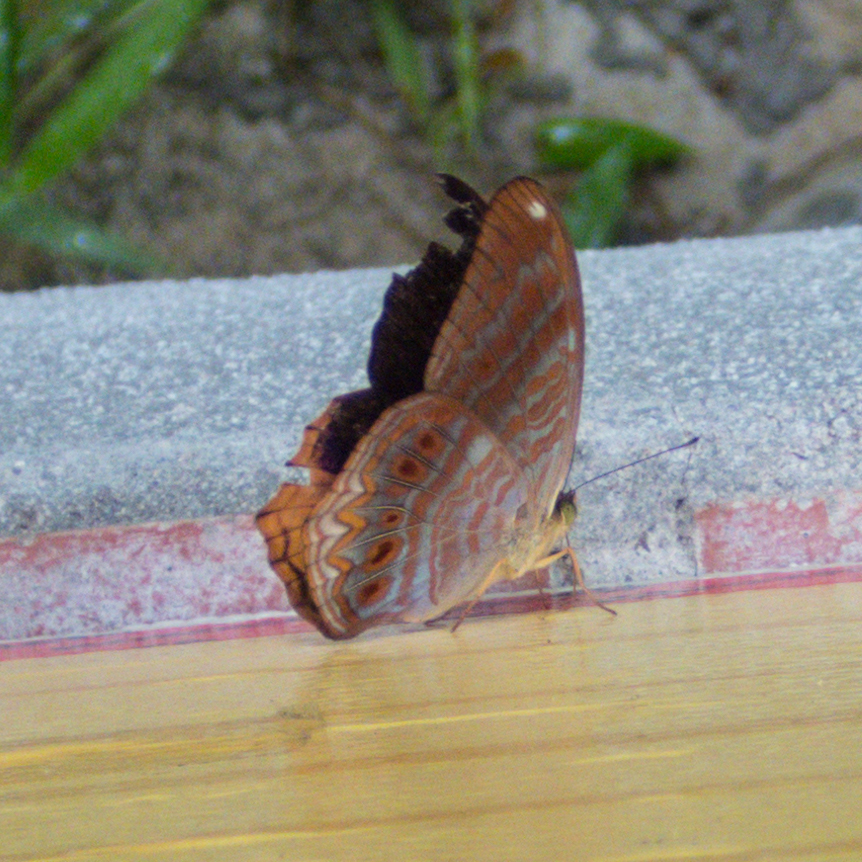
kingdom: Animalia
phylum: Arthropoda
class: Insecta
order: Lepidoptera
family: Nymphalidae
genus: Terinos
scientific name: Terinos terpander
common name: Royal assyrian
